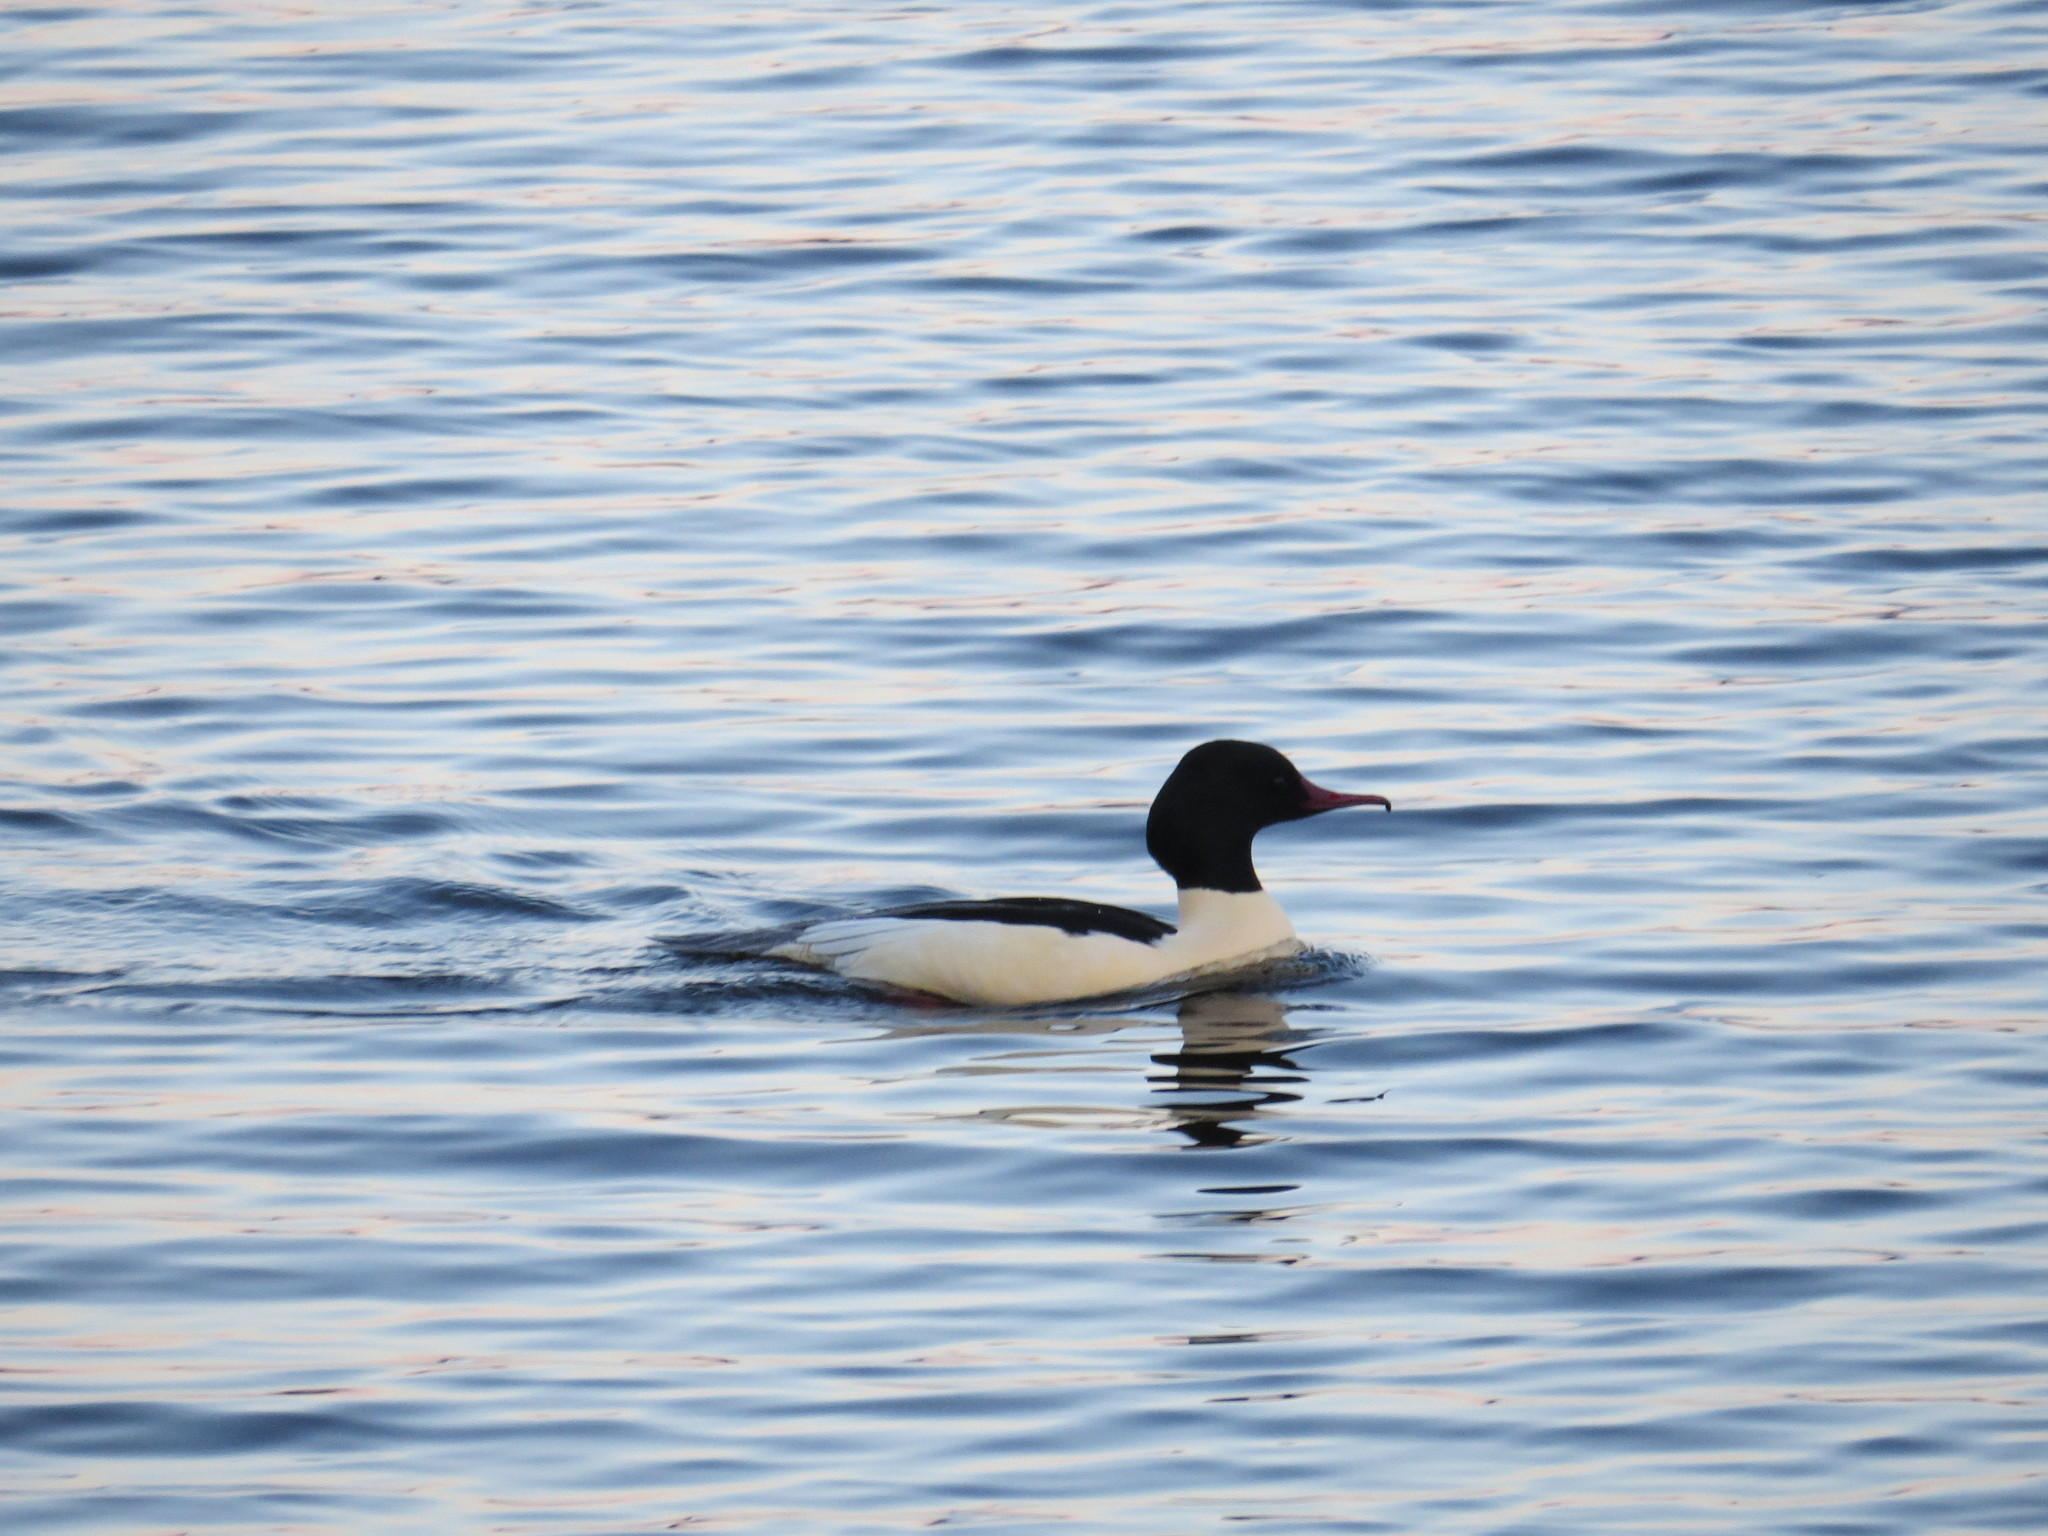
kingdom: Animalia
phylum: Chordata
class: Aves
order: Anseriformes
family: Anatidae
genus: Mergus
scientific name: Mergus merganser
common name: Common merganser
